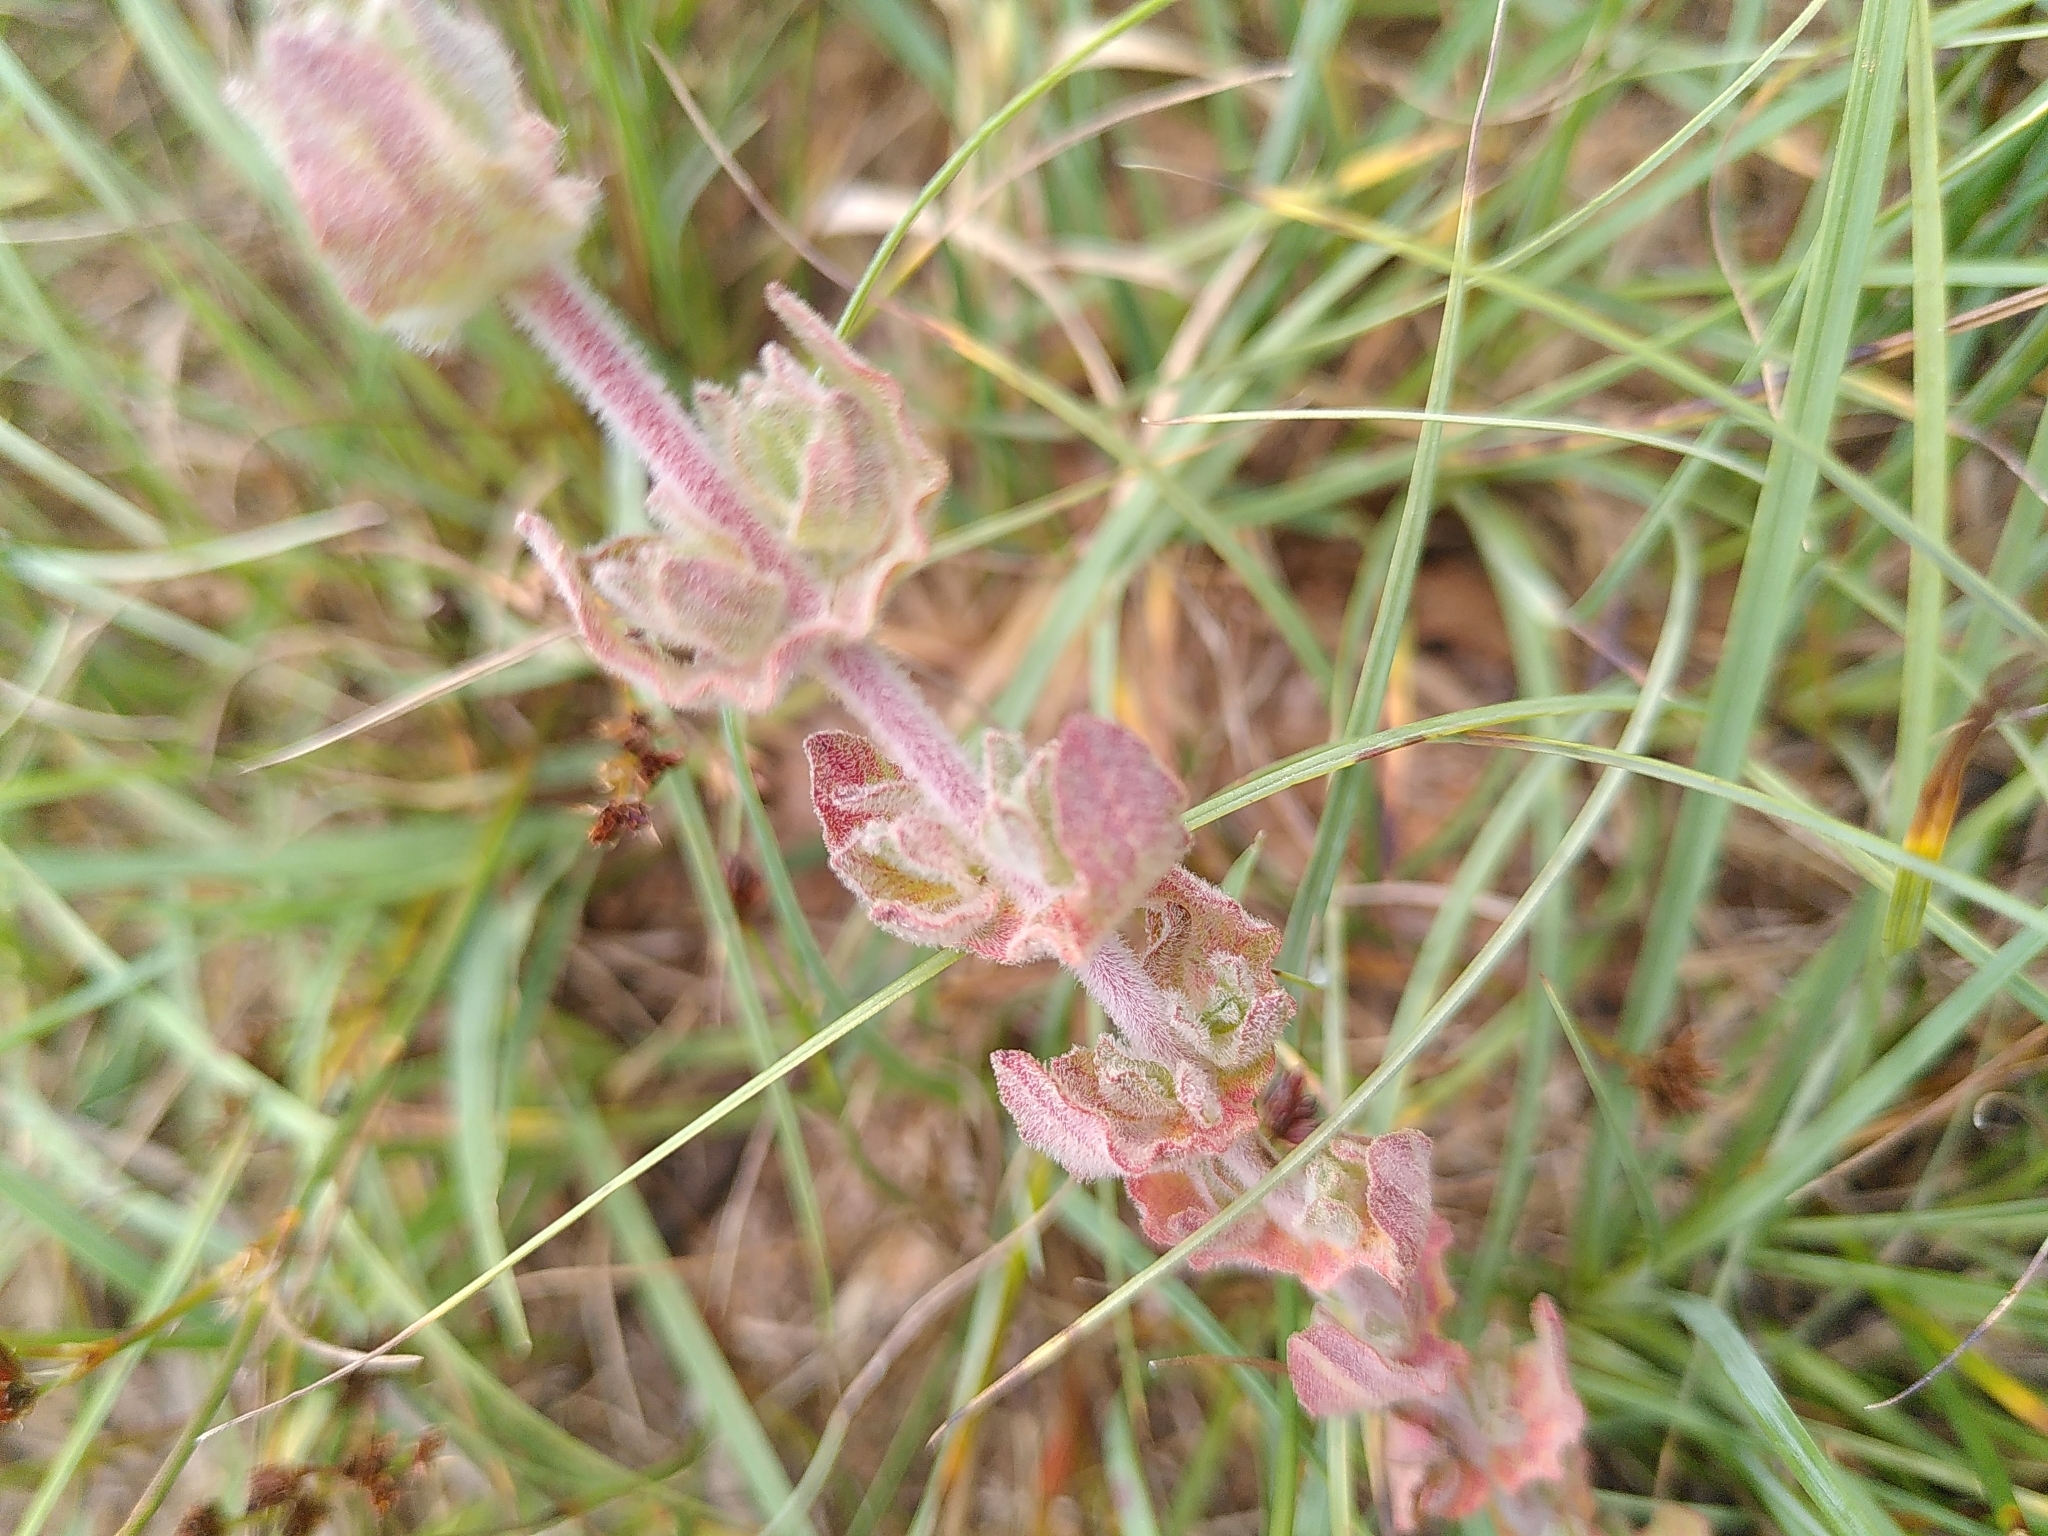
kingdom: Plantae
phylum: Tracheophyta
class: Magnoliopsida
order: Malpighiales
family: Hypericaceae
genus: Hypericum
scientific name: Hypericum tomentosum
